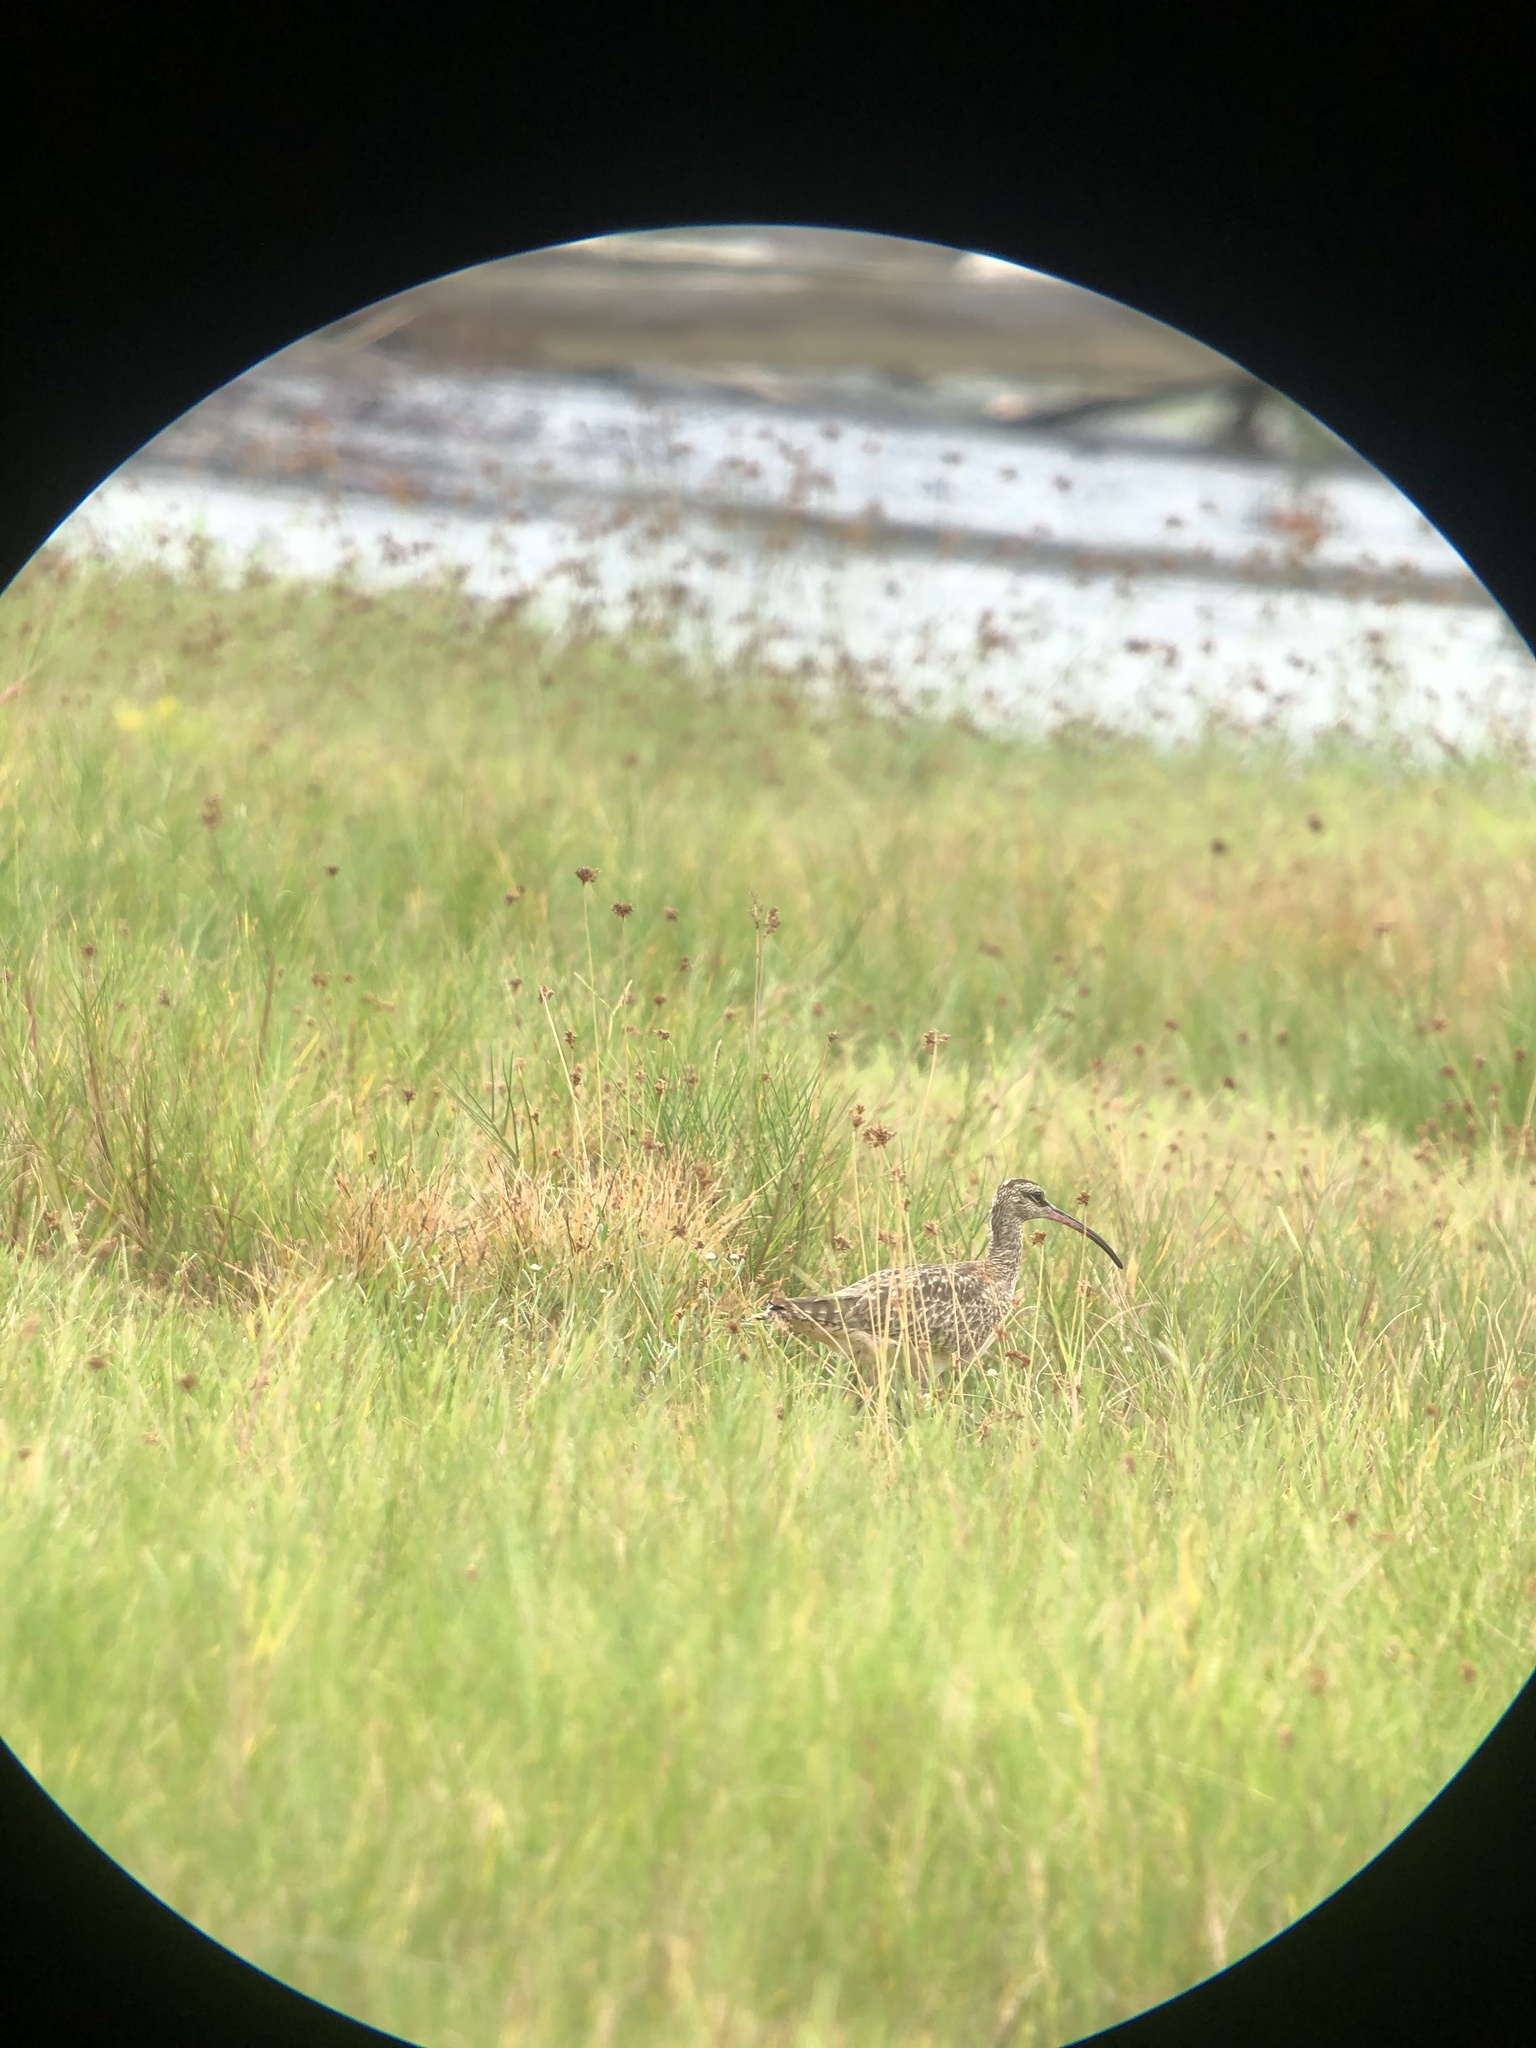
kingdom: Animalia
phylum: Chordata
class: Aves
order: Charadriiformes
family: Scolopacidae
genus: Numenius
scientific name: Numenius phaeopus
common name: Whimbrel
